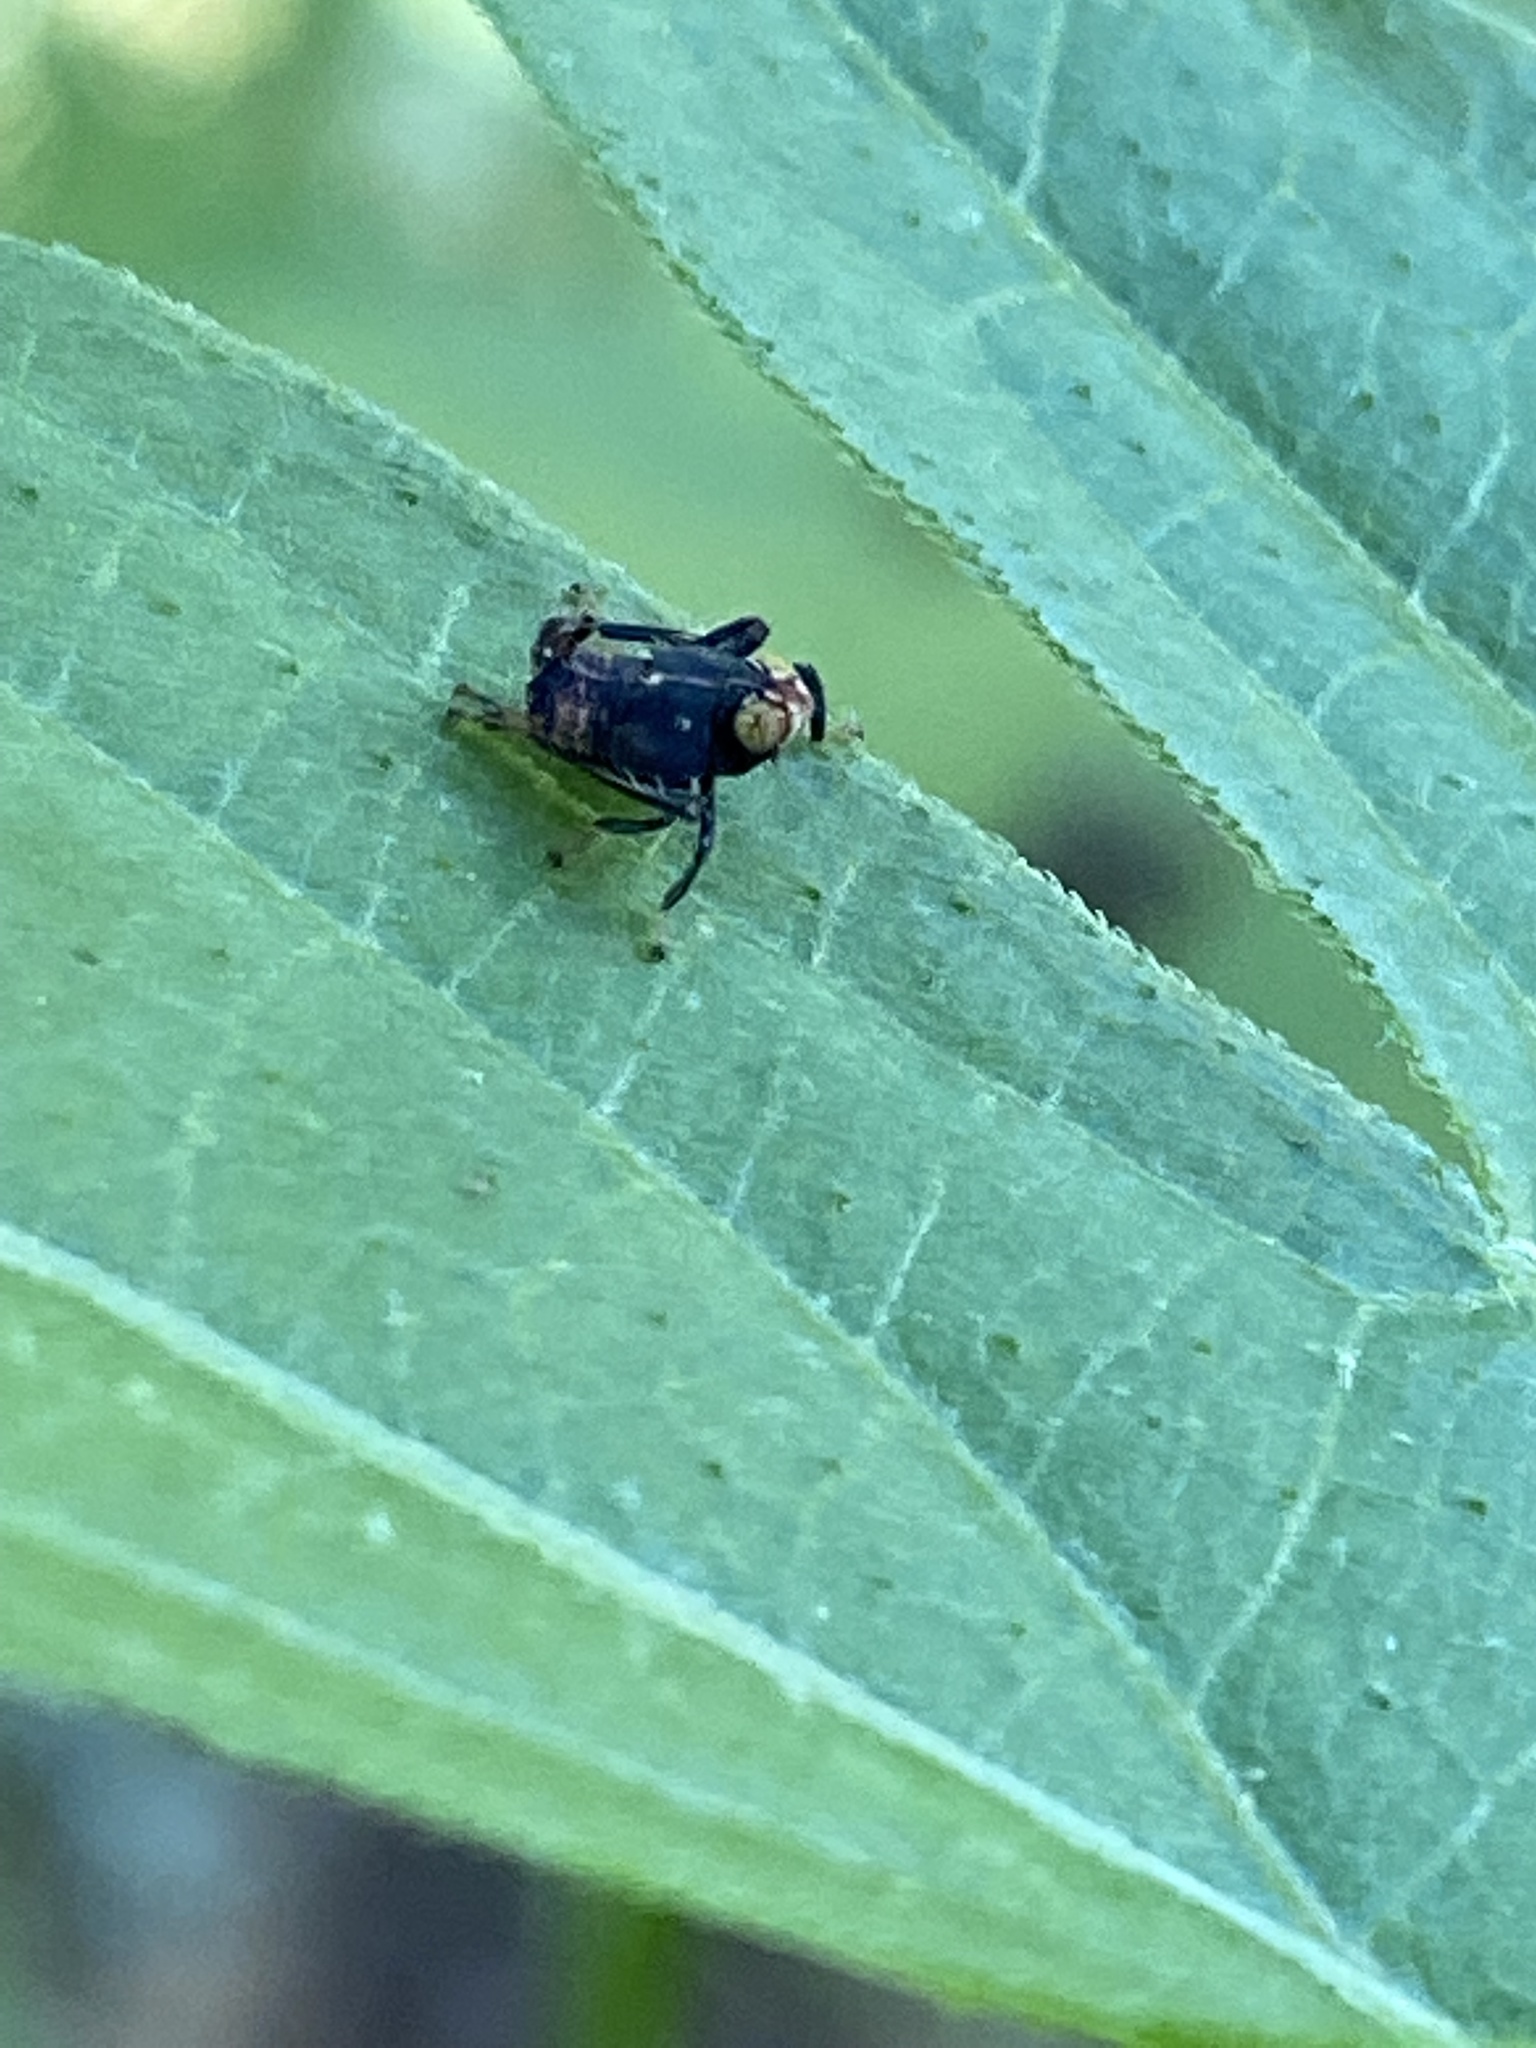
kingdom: Animalia
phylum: Arthropoda
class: Insecta
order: Hemiptera
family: Cicadellidae
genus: Jikradia
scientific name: Jikradia olitoria
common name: Coppery leafhopper
